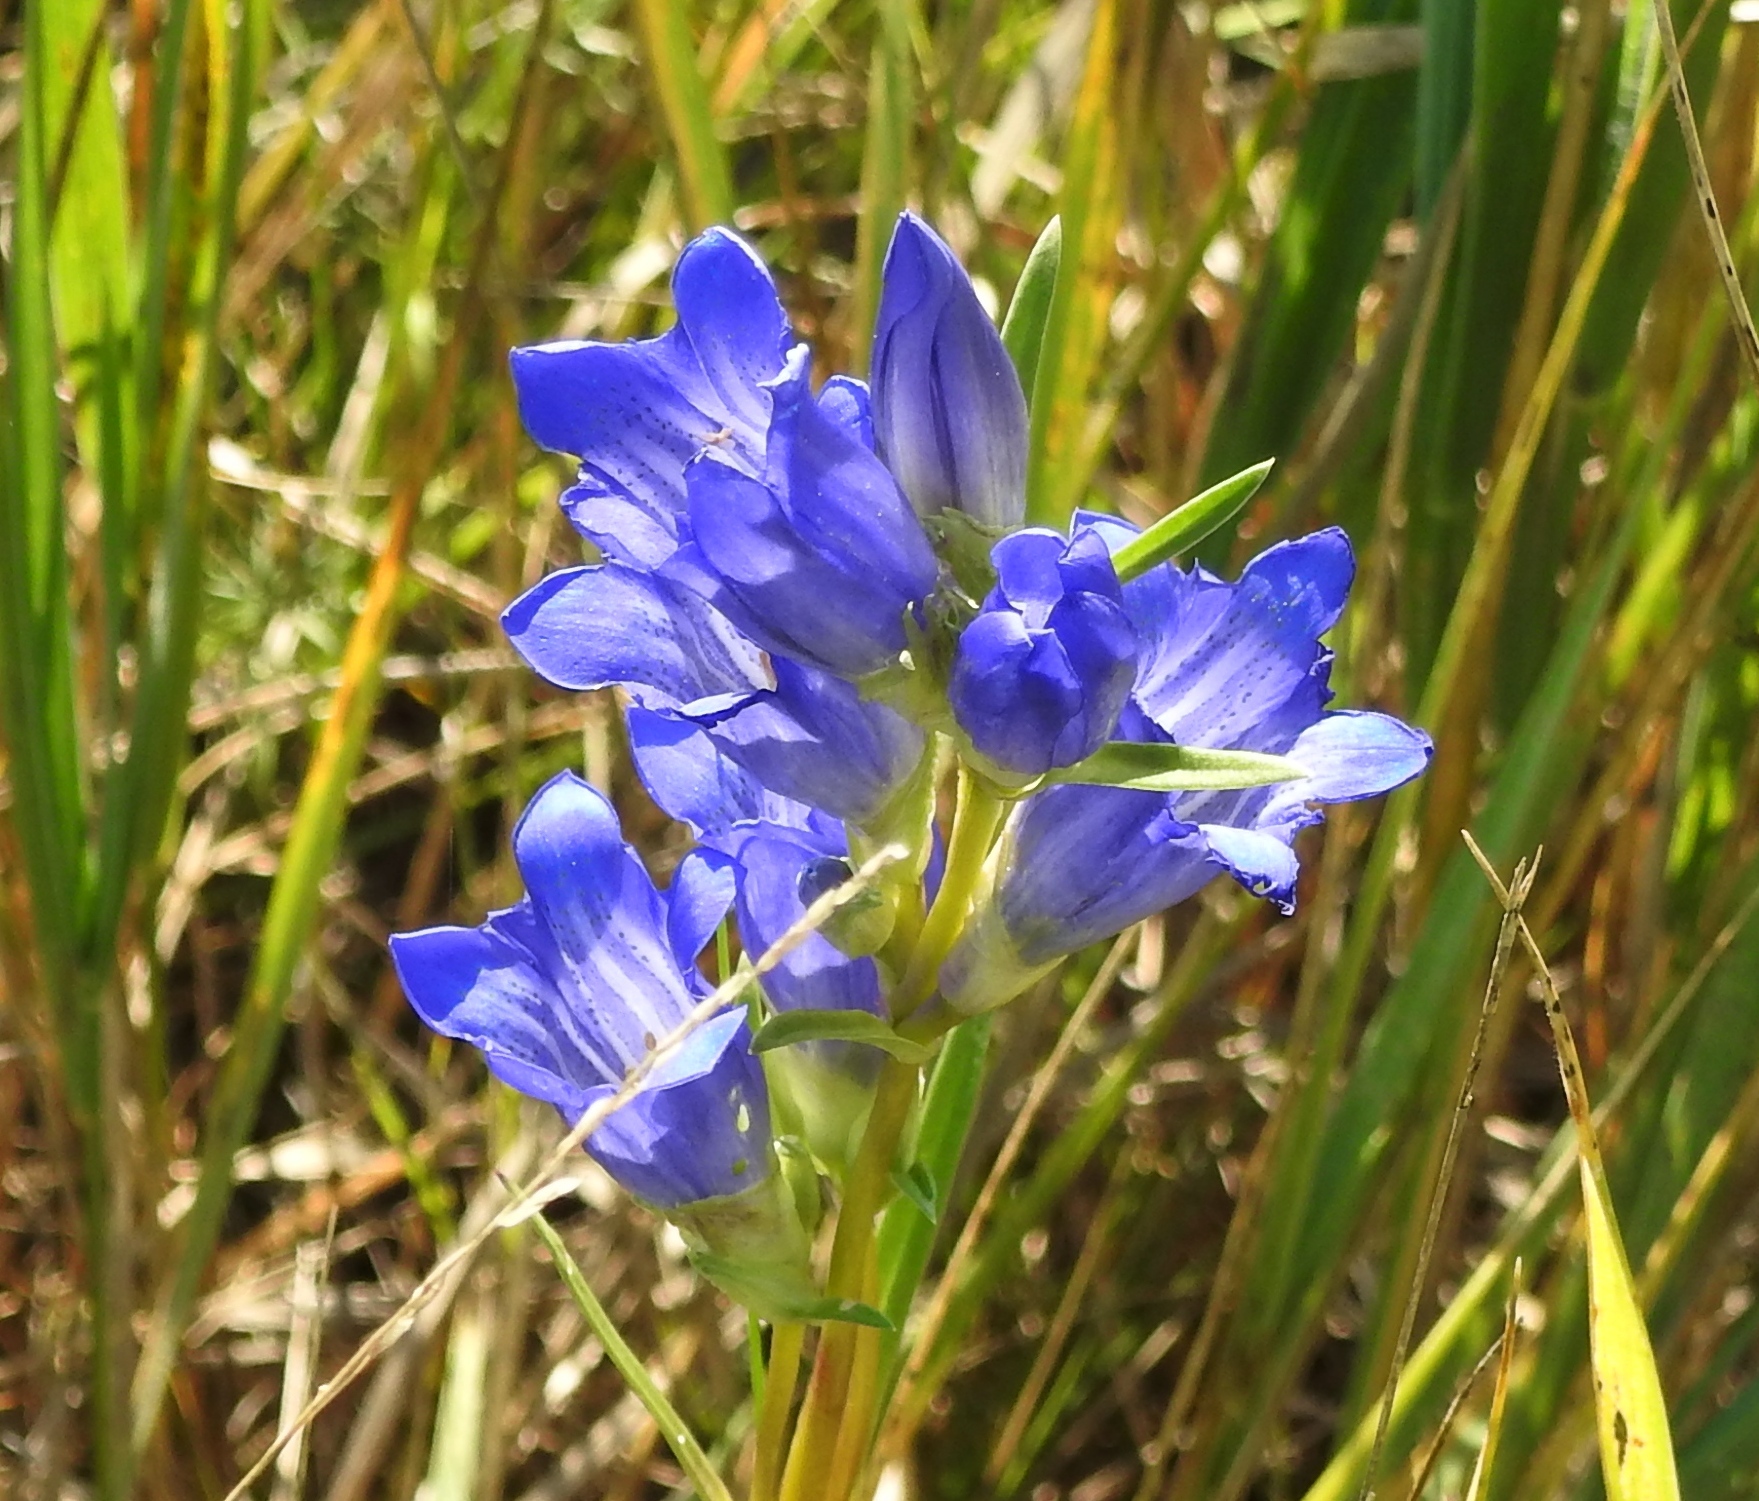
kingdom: Plantae
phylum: Tracheophyta
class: Magnoliopsida
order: Gentianales
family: Gentianaceae
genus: Gentiana
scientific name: Gentiana dahurica
